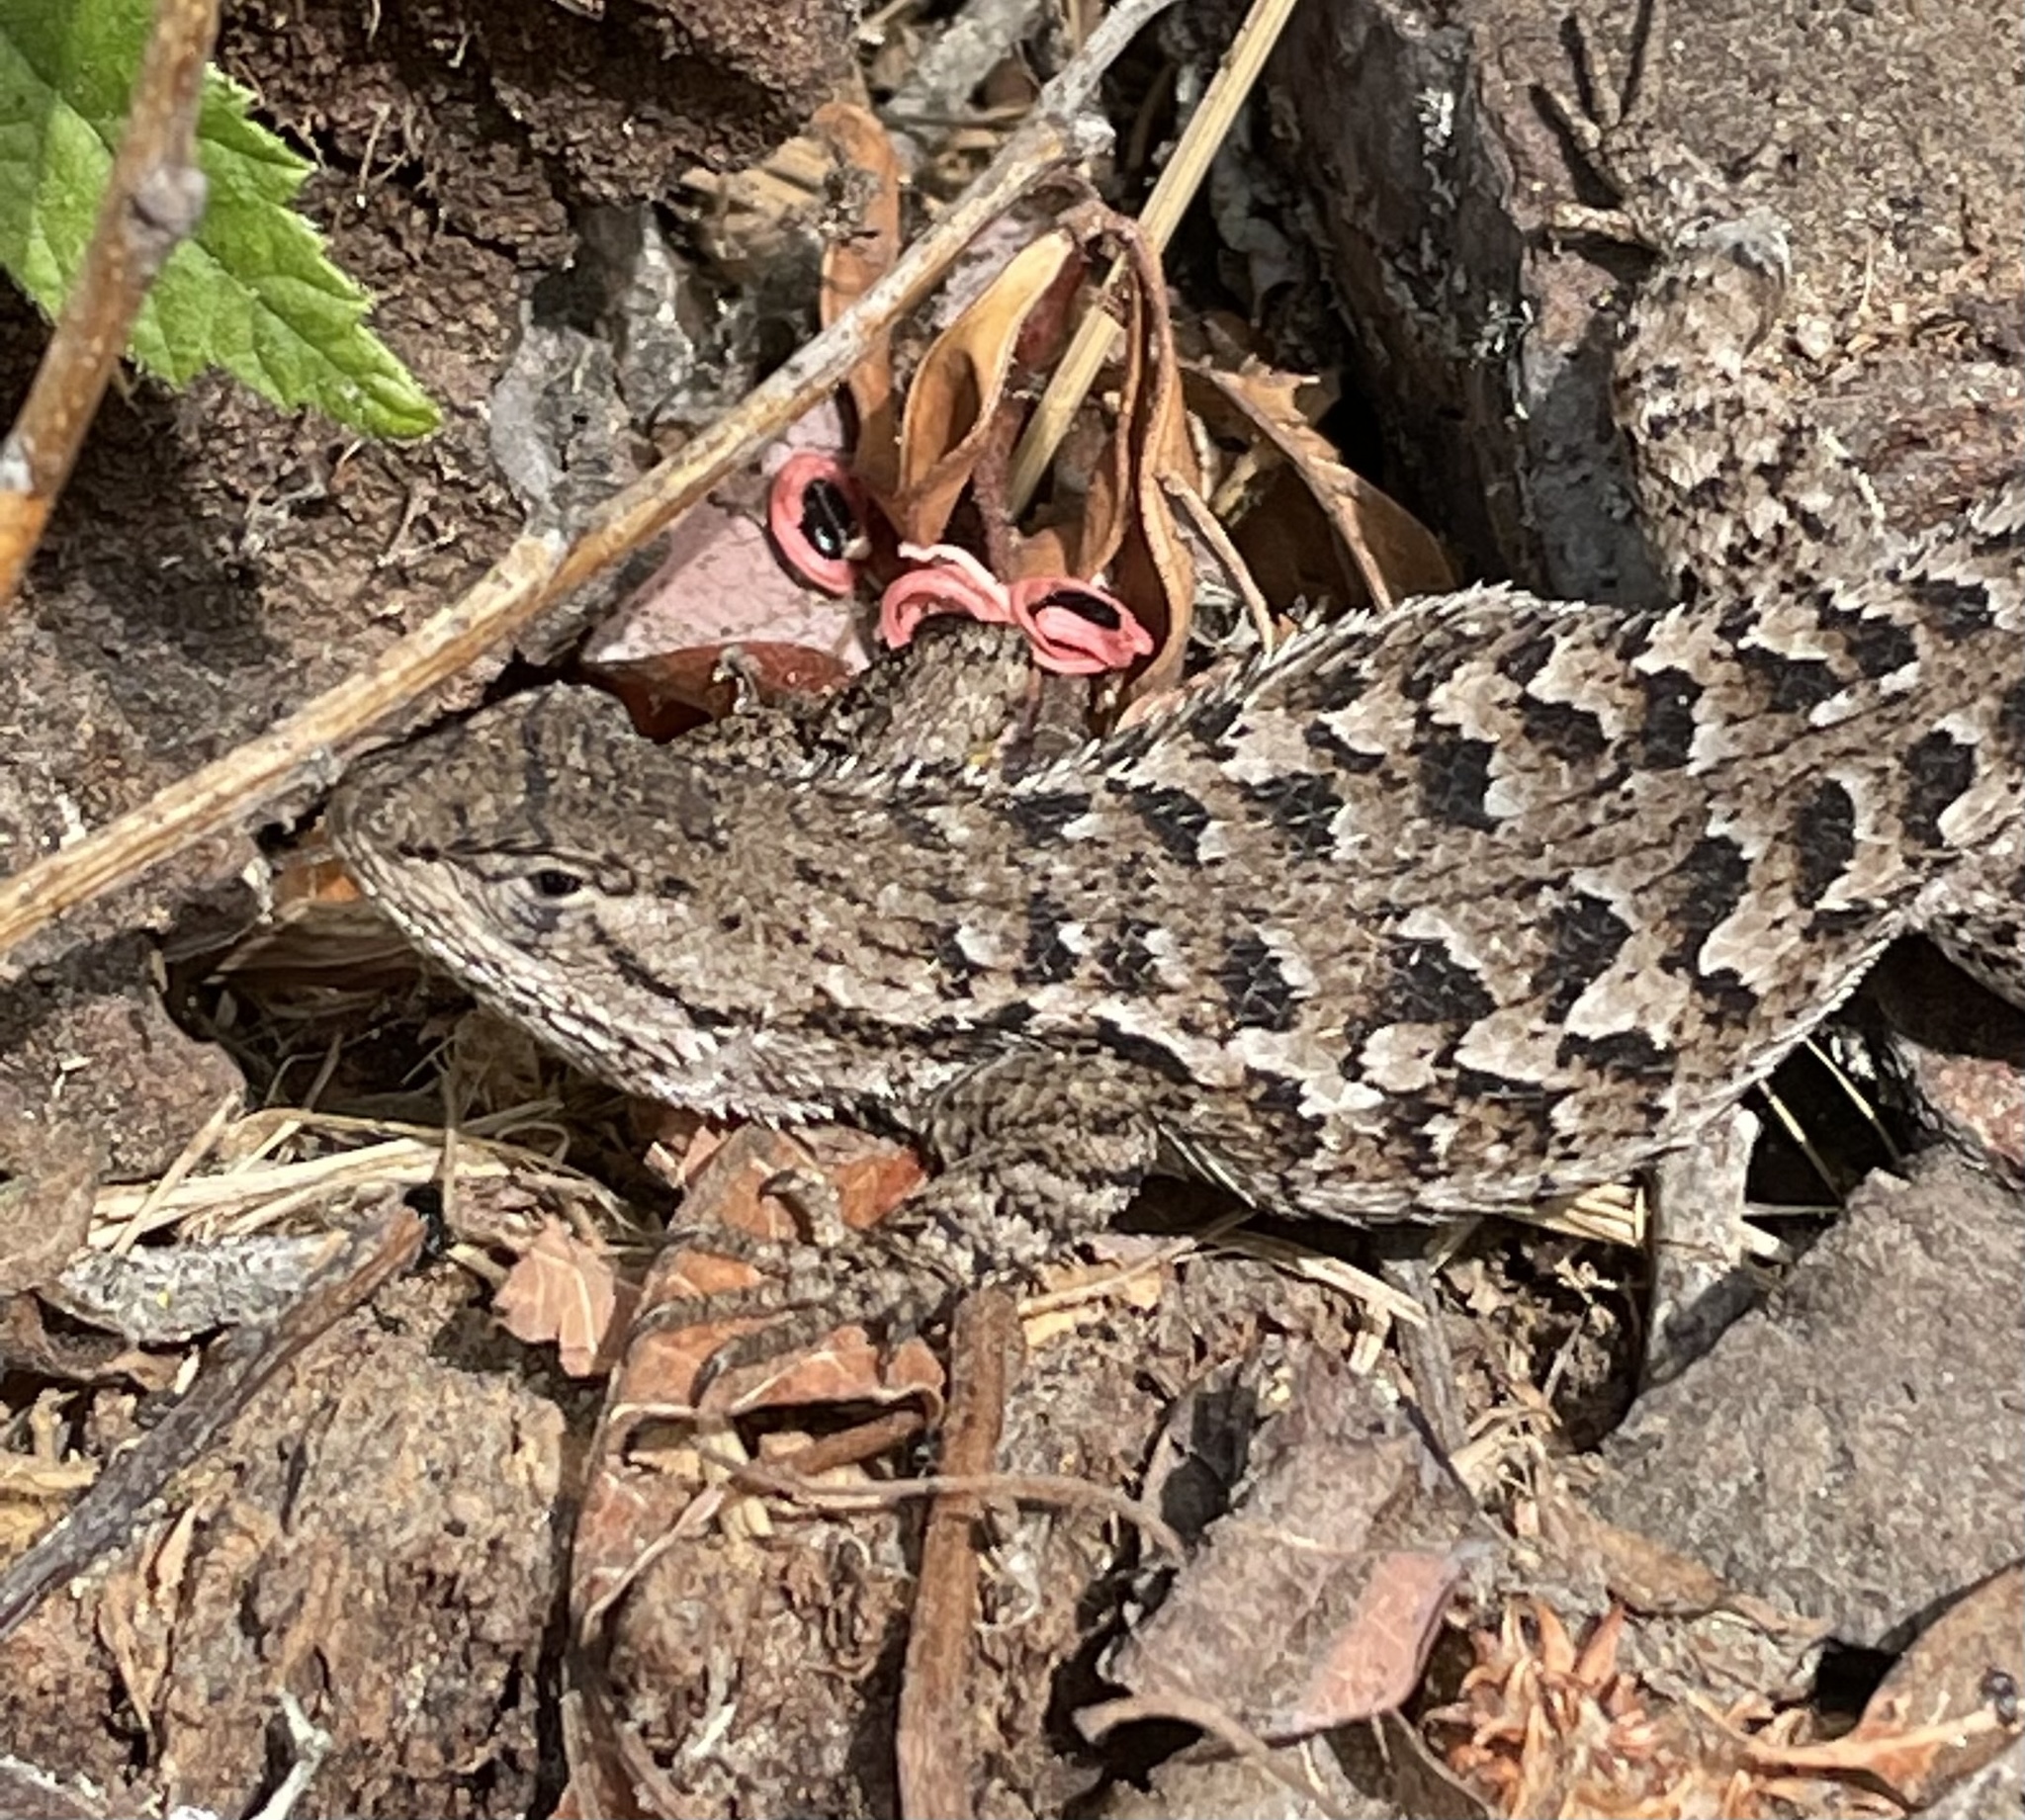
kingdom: Animalia
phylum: Chordata
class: Squamata
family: Phrynosomatidae
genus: Sceloporus
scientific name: Sceloporus occidentalis
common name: Western fence lizard
